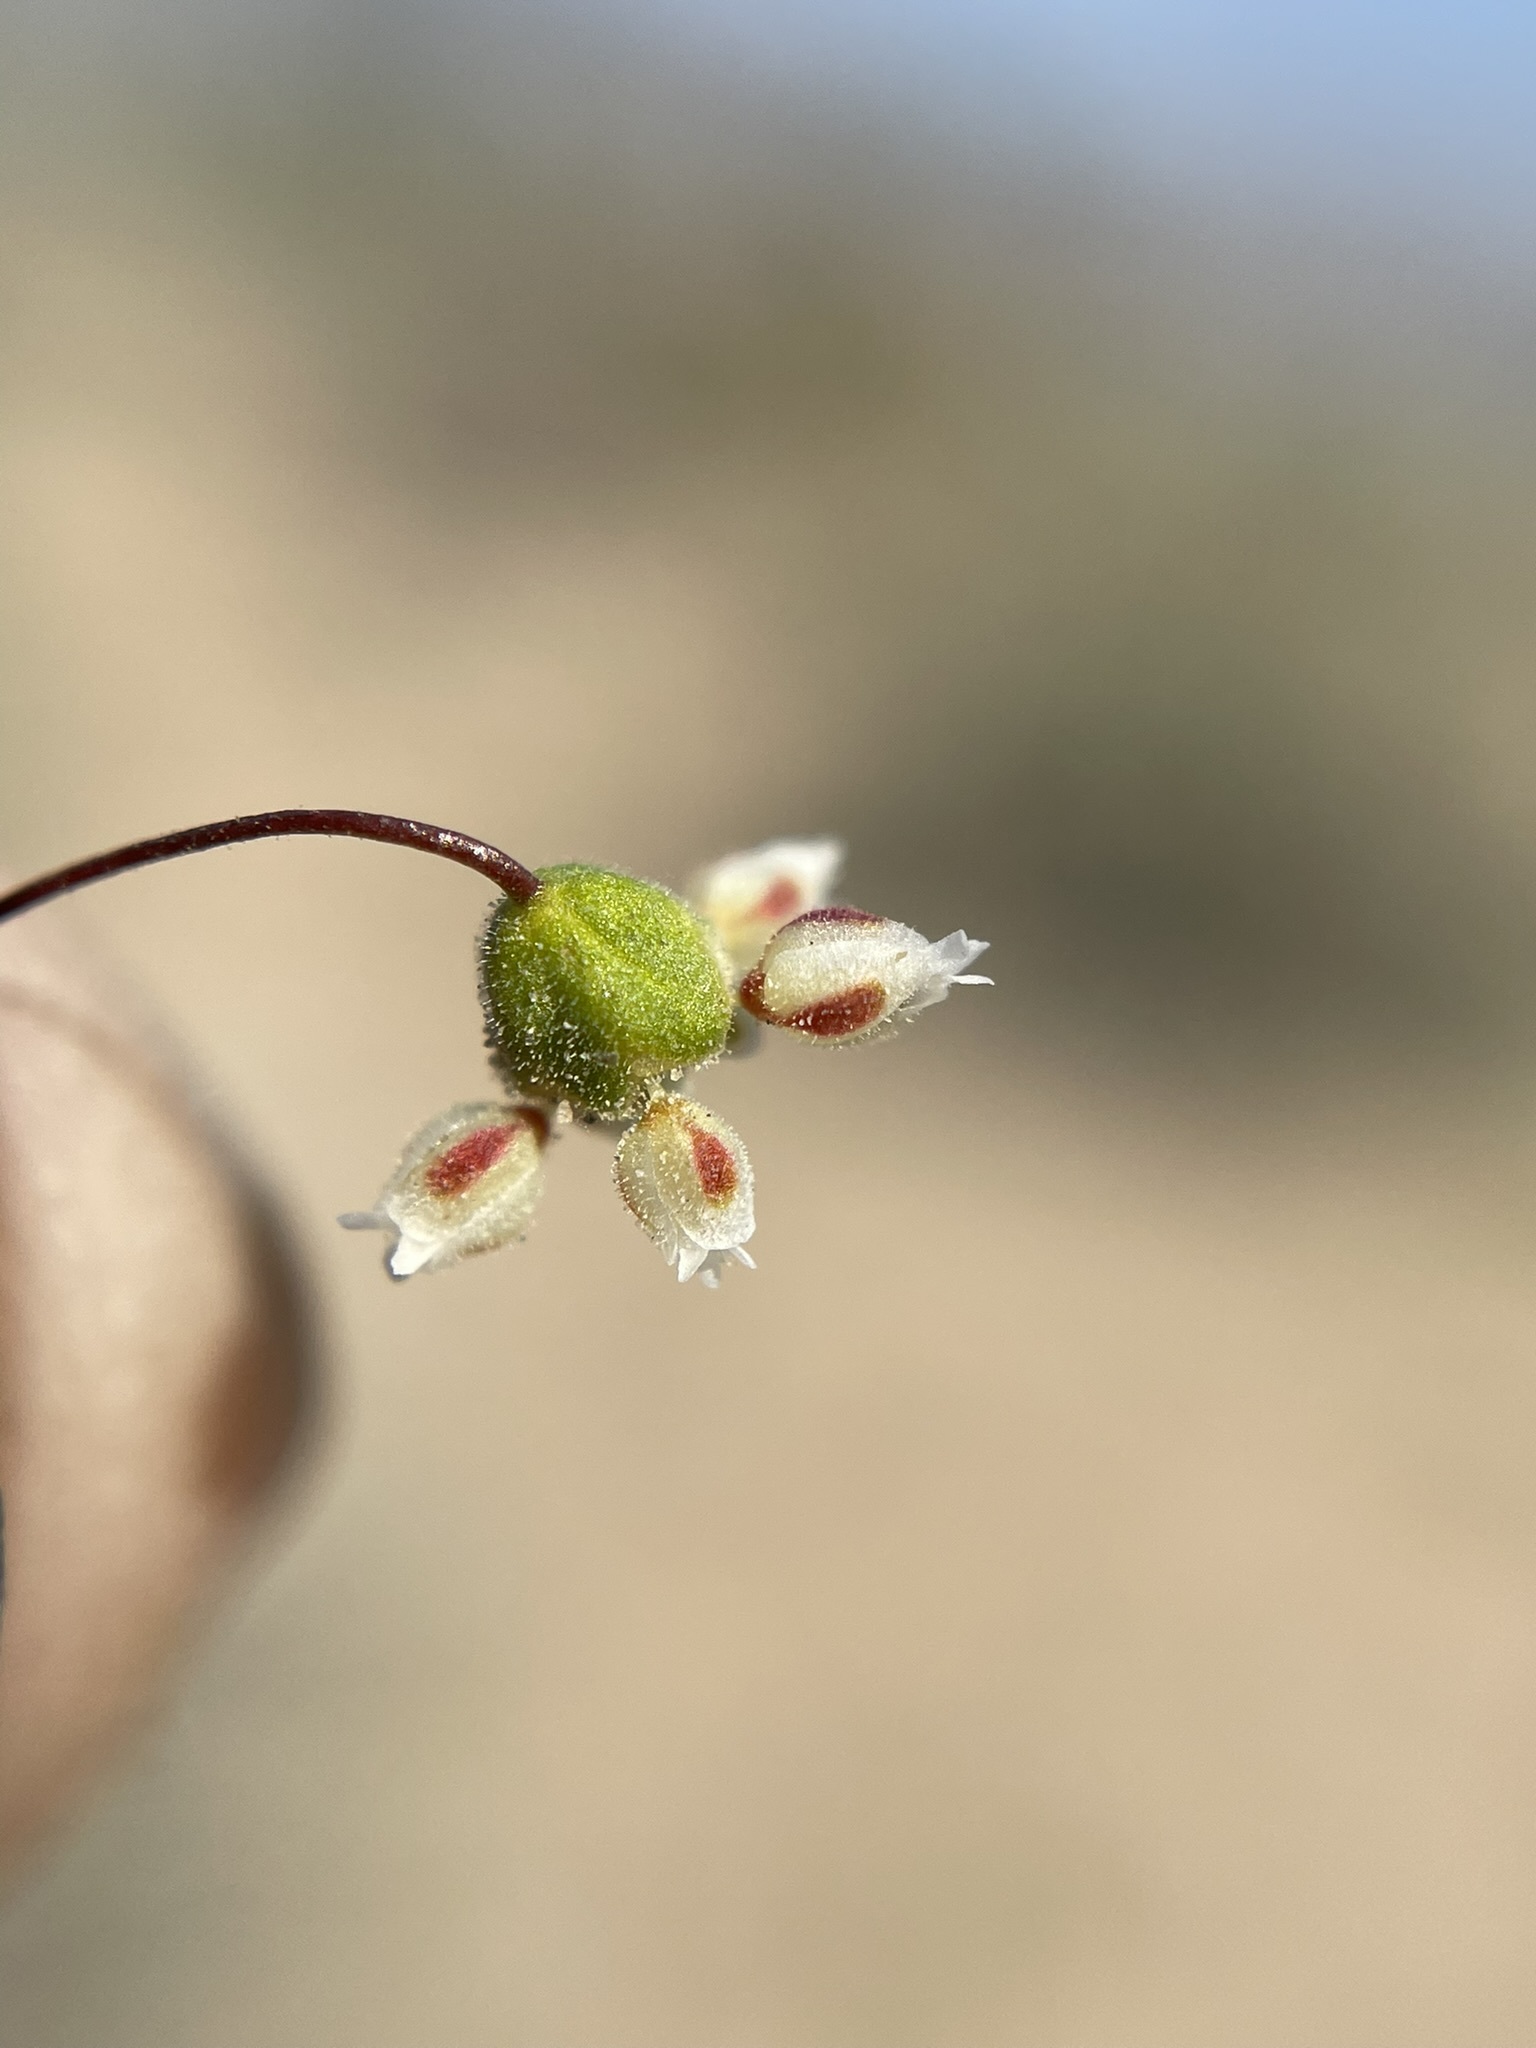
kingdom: Plantae
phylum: Tracheophyta
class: Magnoliopsida
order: Caryophyllales
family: Polygonaceae
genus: Eriogonum
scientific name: Eriogonum maculatum
